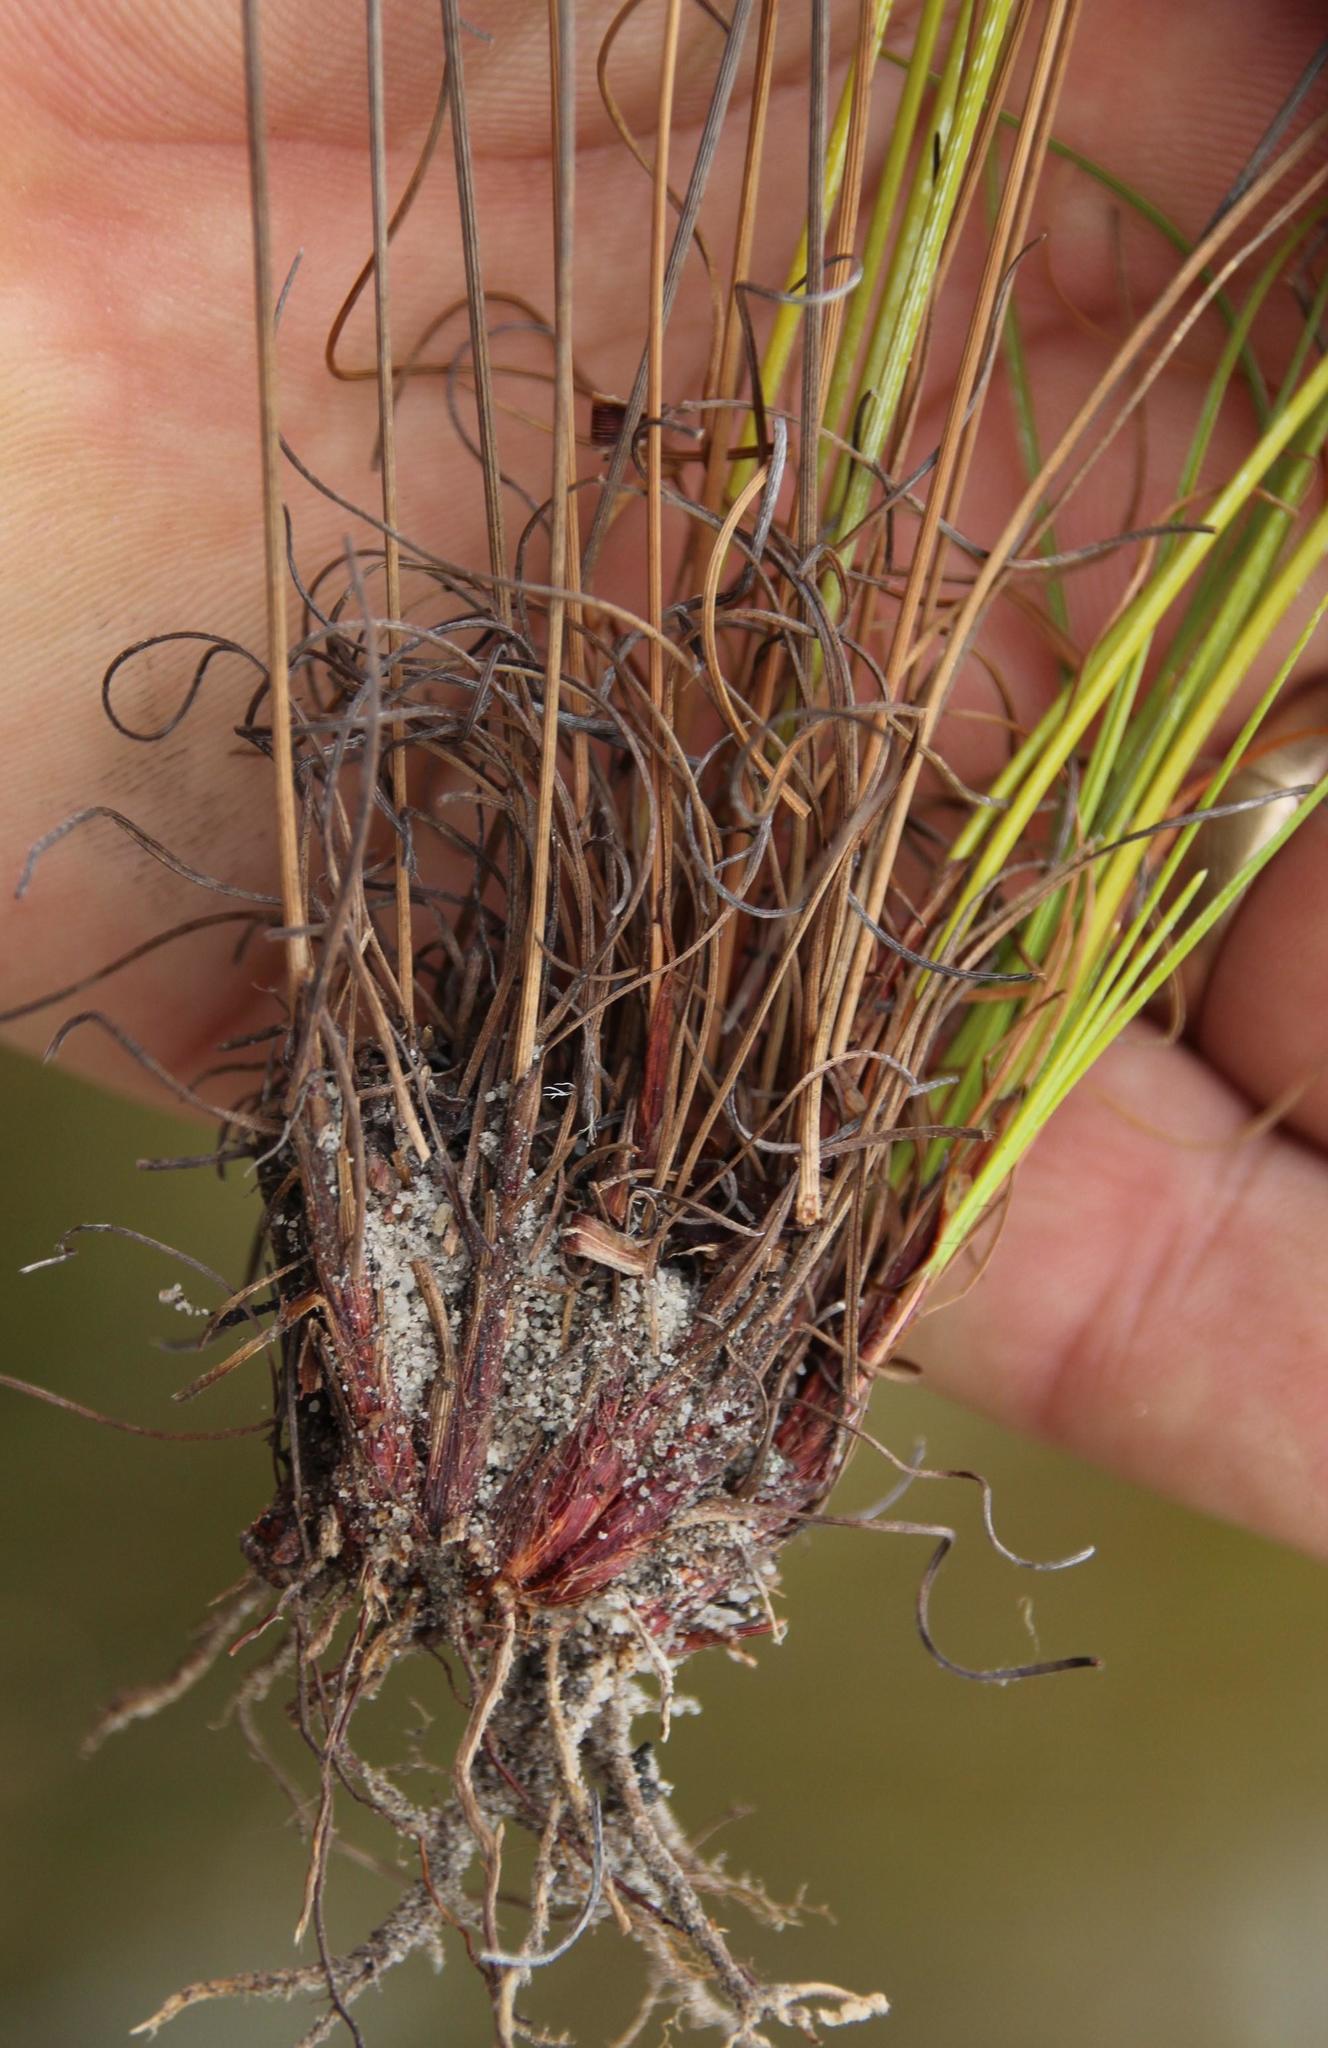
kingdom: Plantae
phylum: Tracheophyta
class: Liliopsida
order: Poales
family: Cyperaceae
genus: Ficinia
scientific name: Ficinia nigrescens
